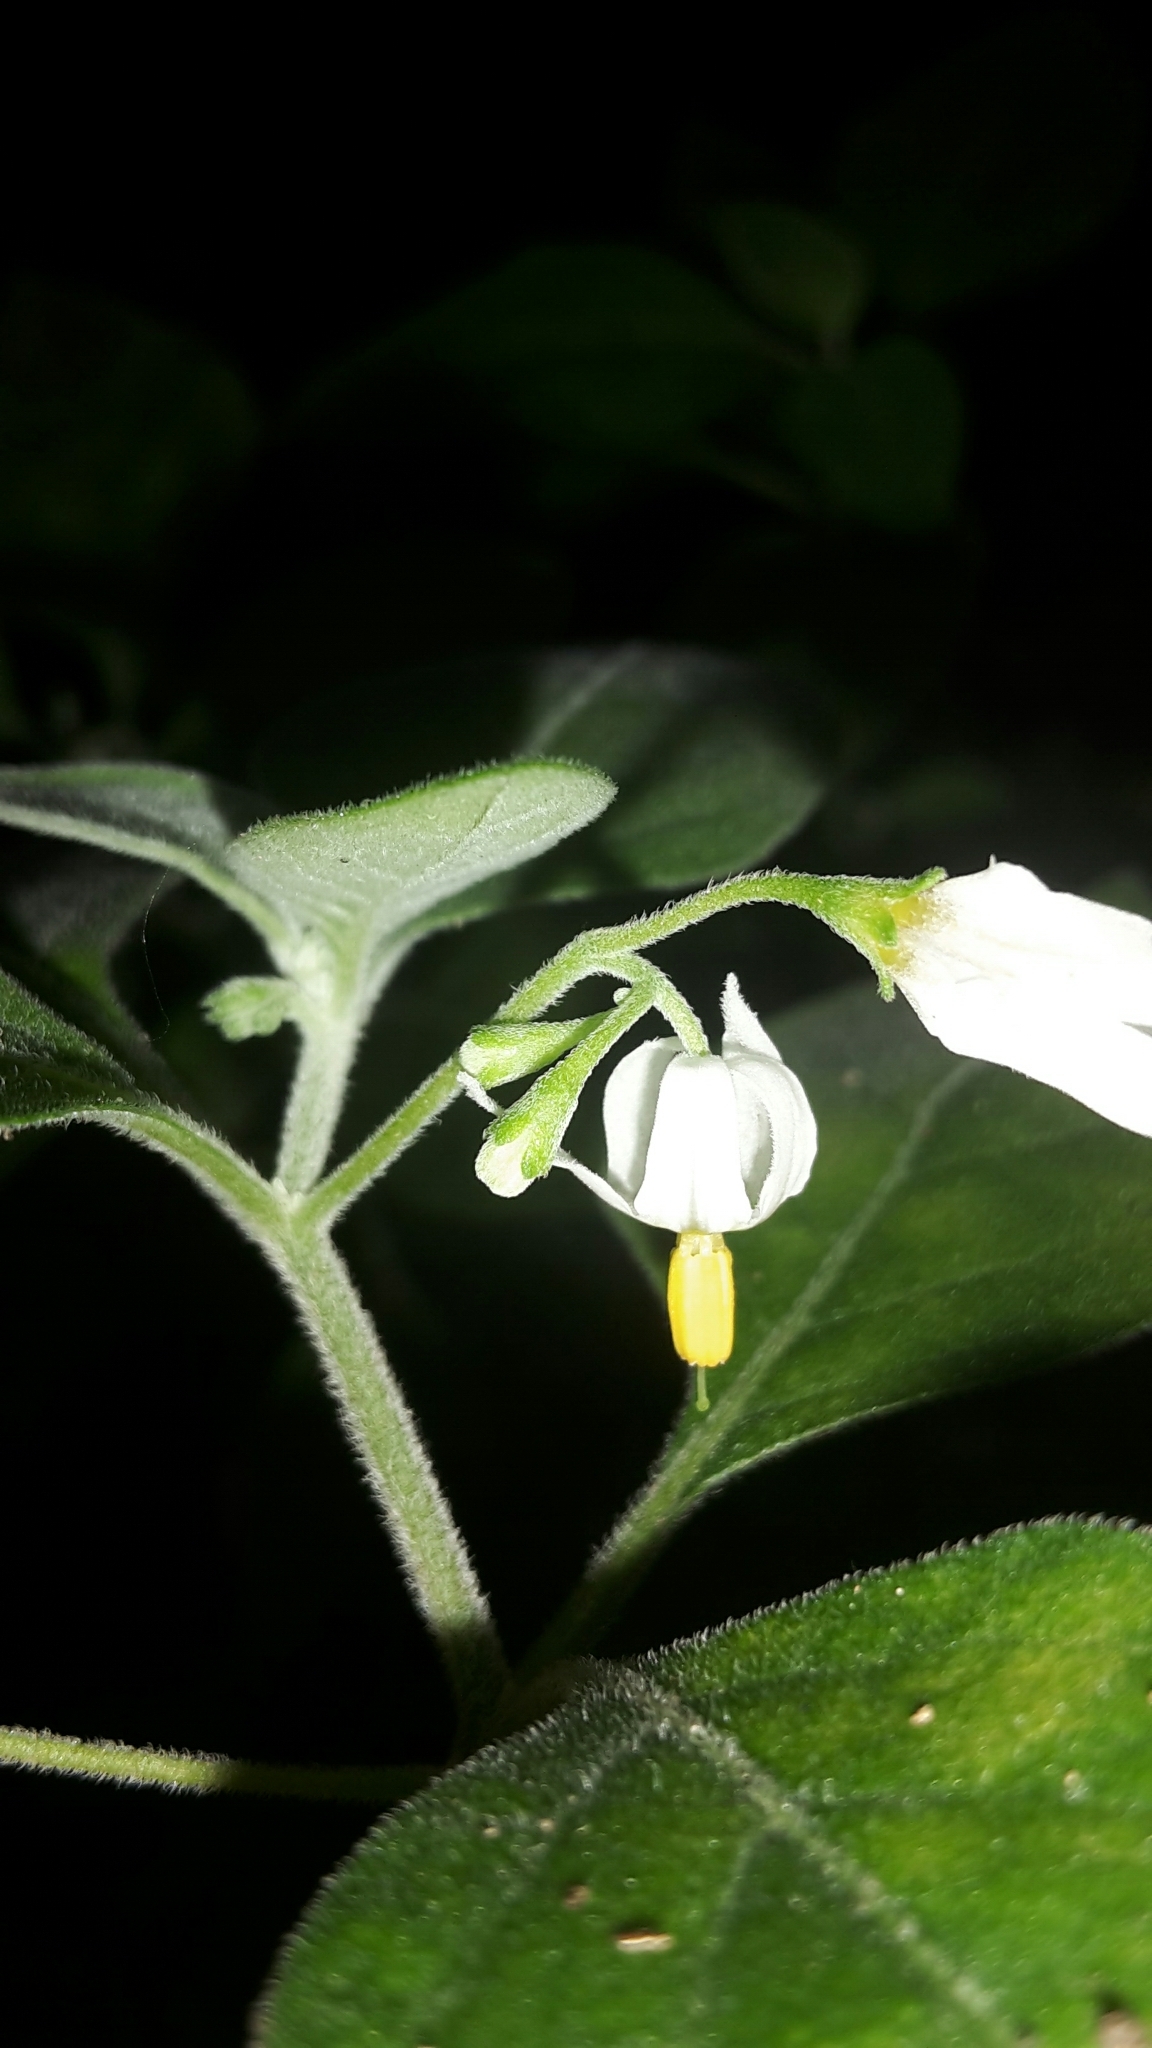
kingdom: Plantae
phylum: Tracheophyta
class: Magnoliopsida
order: Solanales
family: Solanaceae
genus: Solanum
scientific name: Solanum chenopodioides
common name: Tall nightshade
